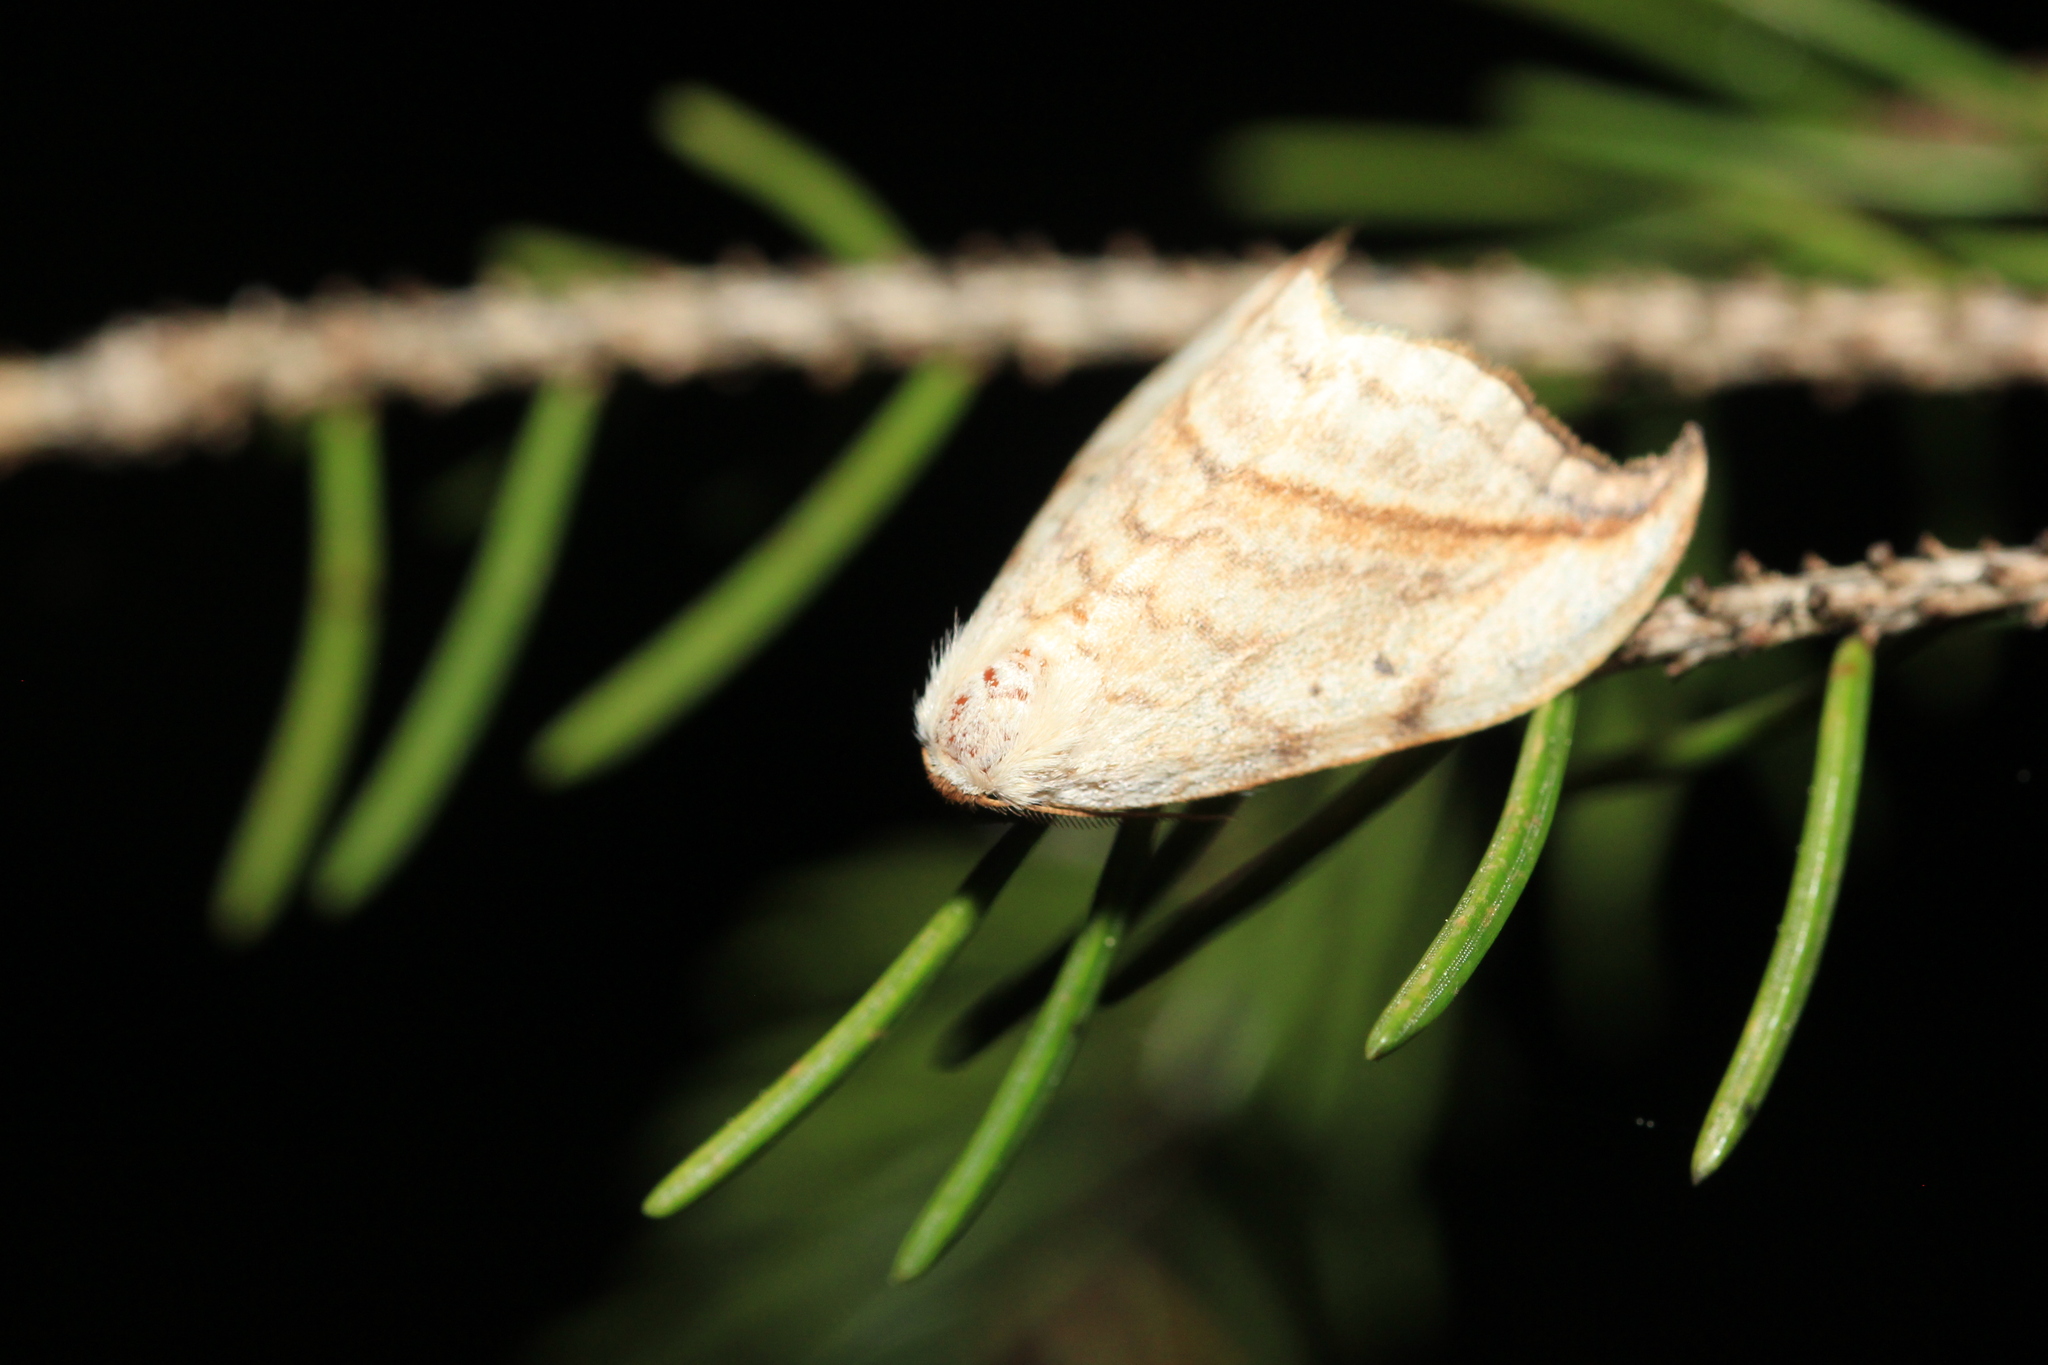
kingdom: Animalia
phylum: Arthropoda
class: Insecta
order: Lepidoptera
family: Drepanidae
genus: Drepana
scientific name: Drepana arcuata
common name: Arched hooktip moth
